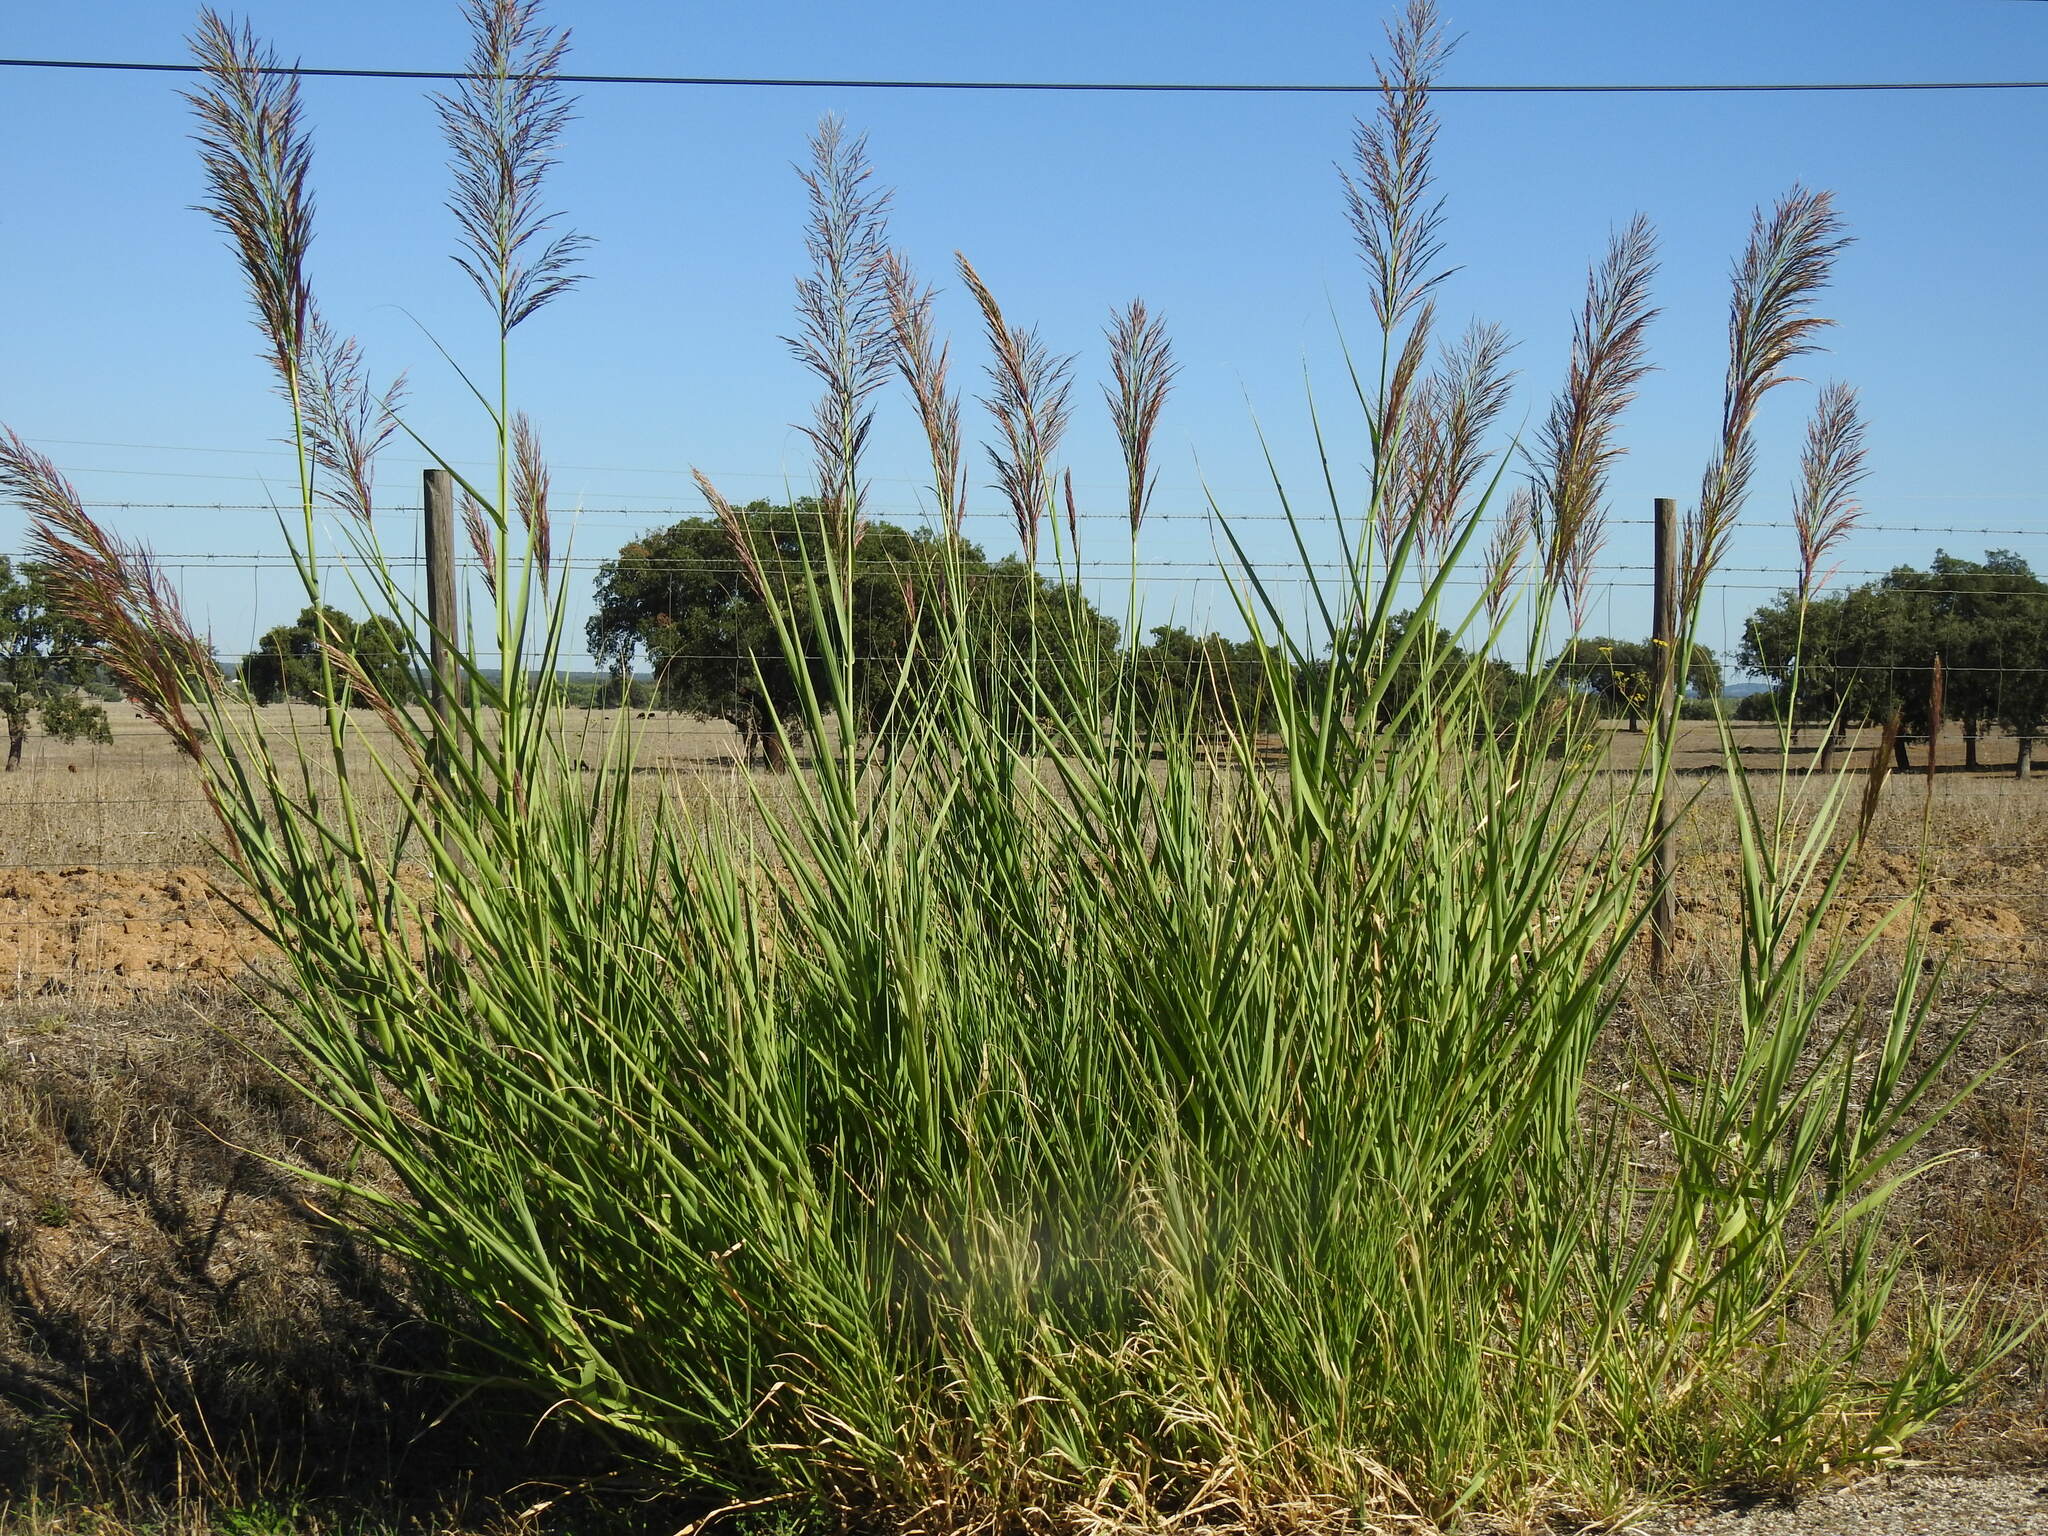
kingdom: Plantae
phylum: Tracheophyta
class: Liliopsida
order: Poales
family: Poaceae
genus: Arundo
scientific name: Arundo micrantha
